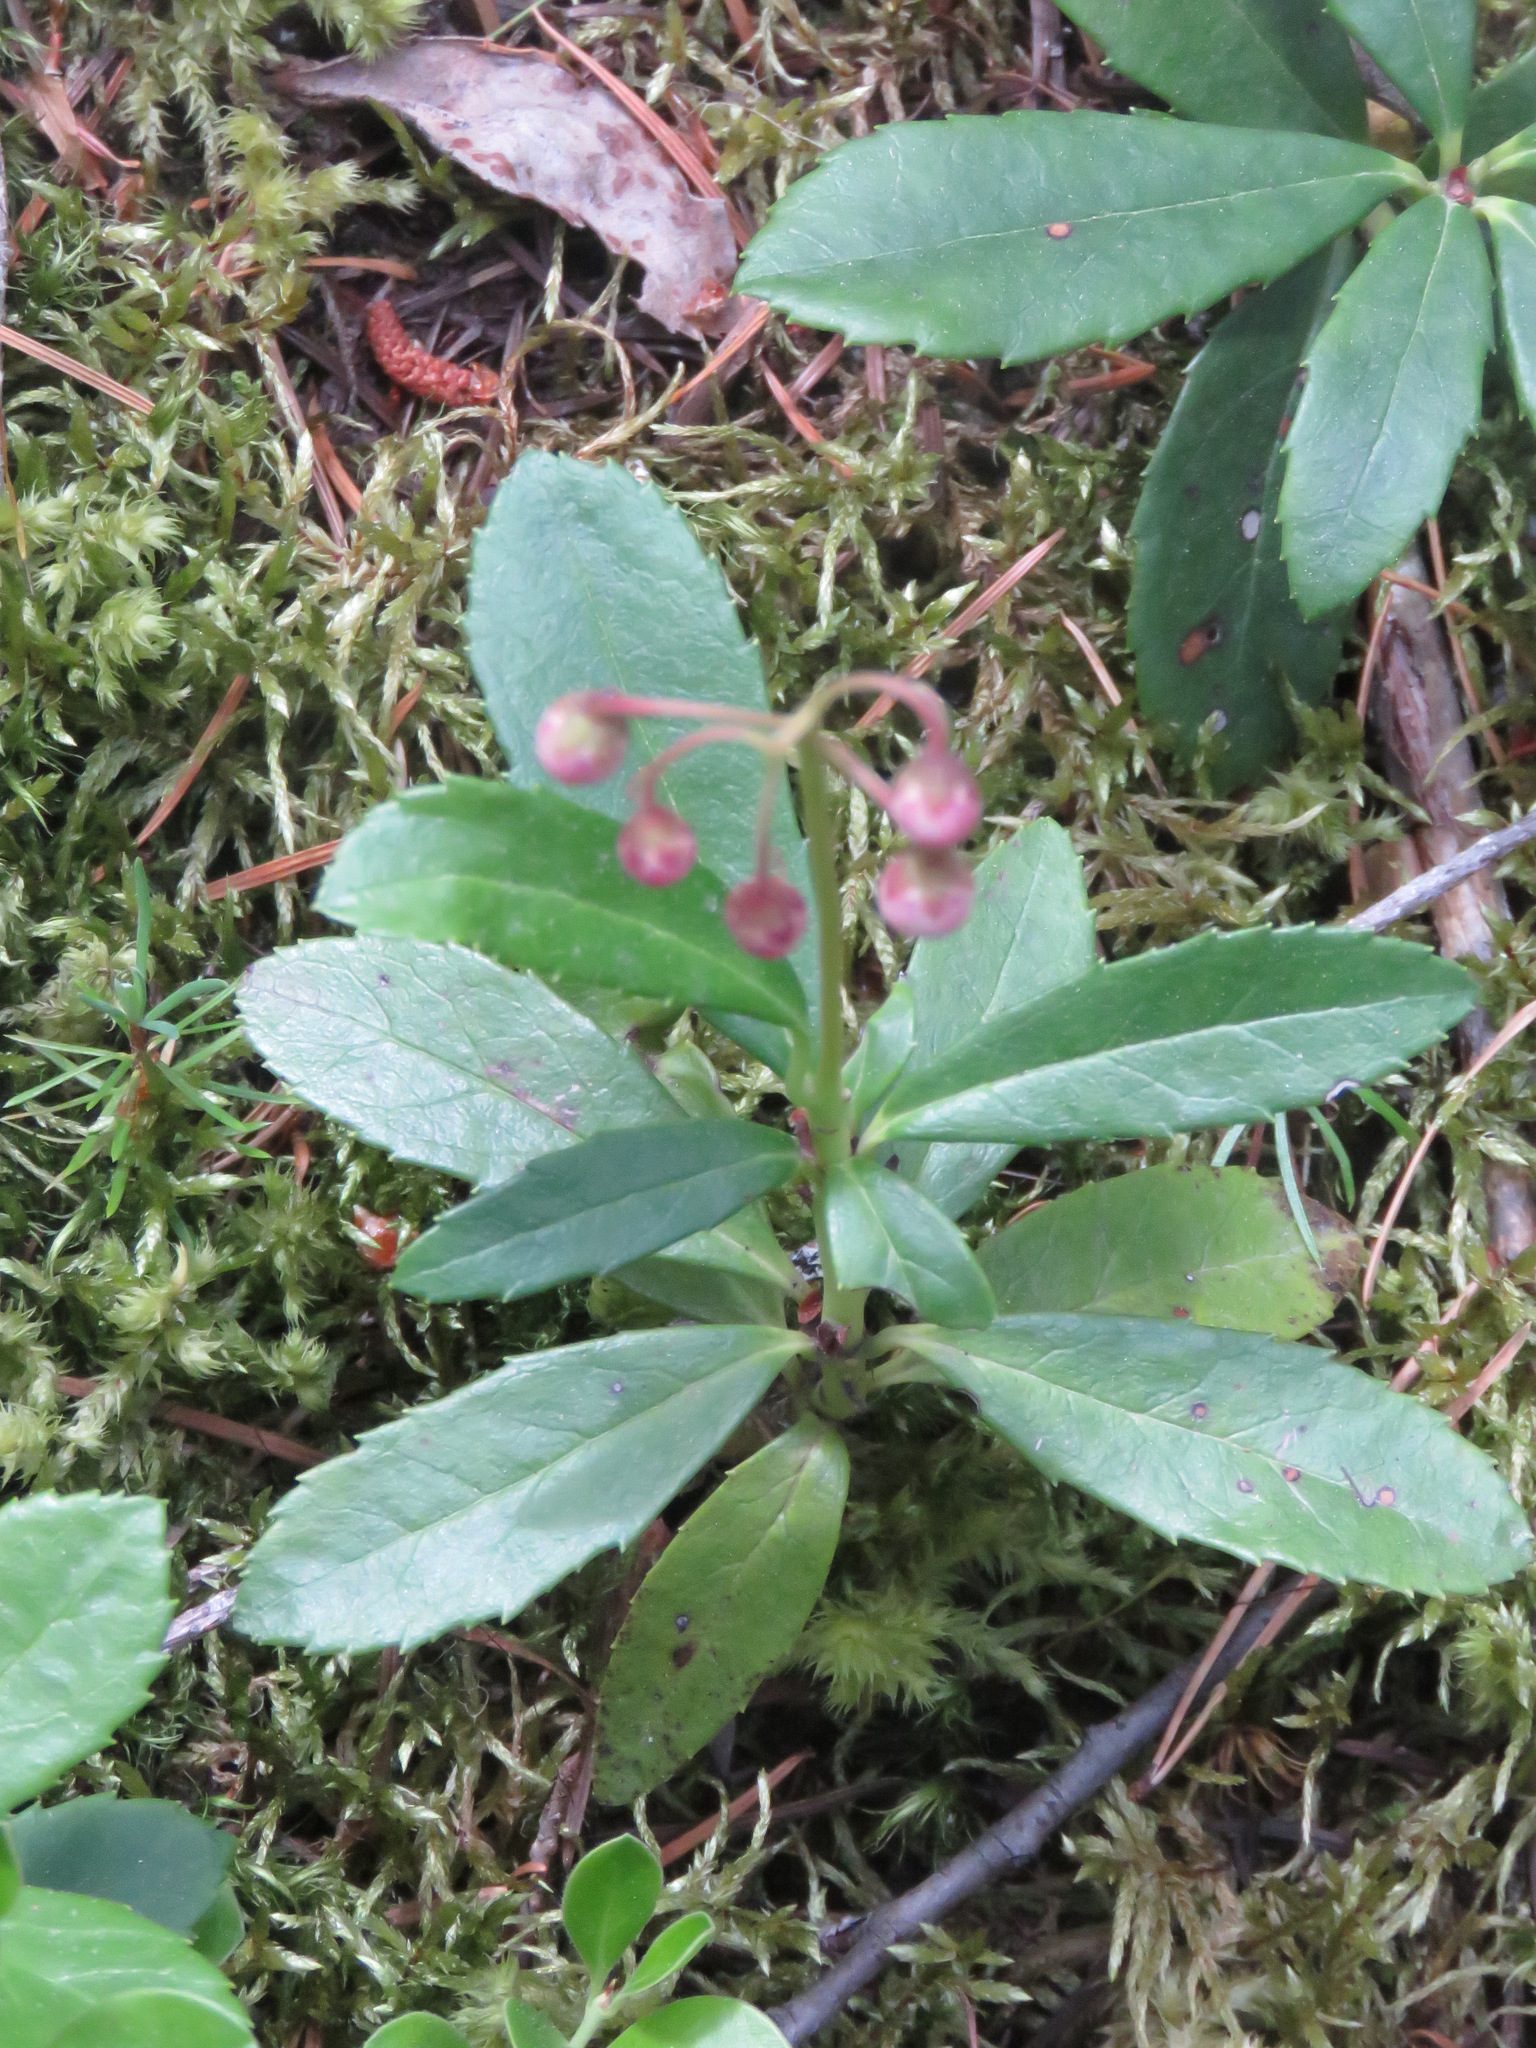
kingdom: Plantae
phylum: Tracheophyta
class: Magnoliopsida
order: Ericales
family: Ericaceae
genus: Chimaphila
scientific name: Chimaphila umbellata
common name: Pipsissewa
